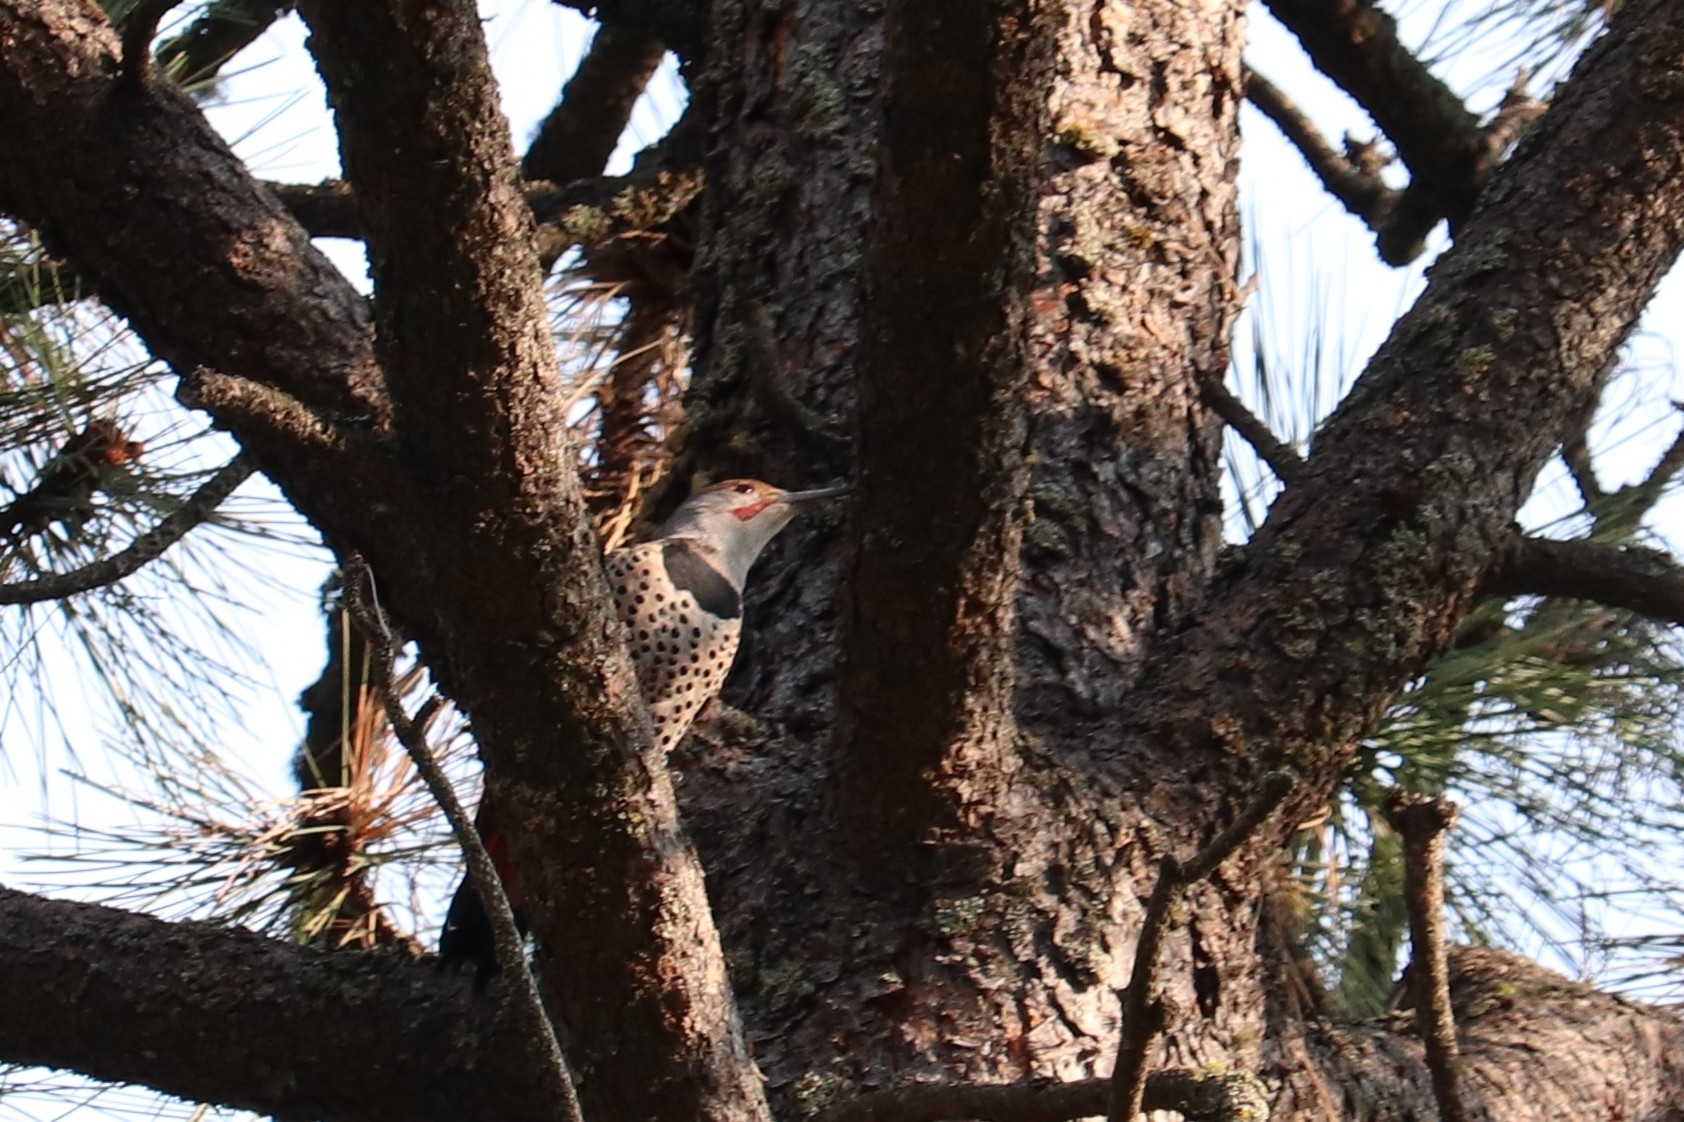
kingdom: Animalia
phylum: Chordata
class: Aves
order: Piciformes
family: Picidae
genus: Colaptes
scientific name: Colaptes auratus
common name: Northern flicker
